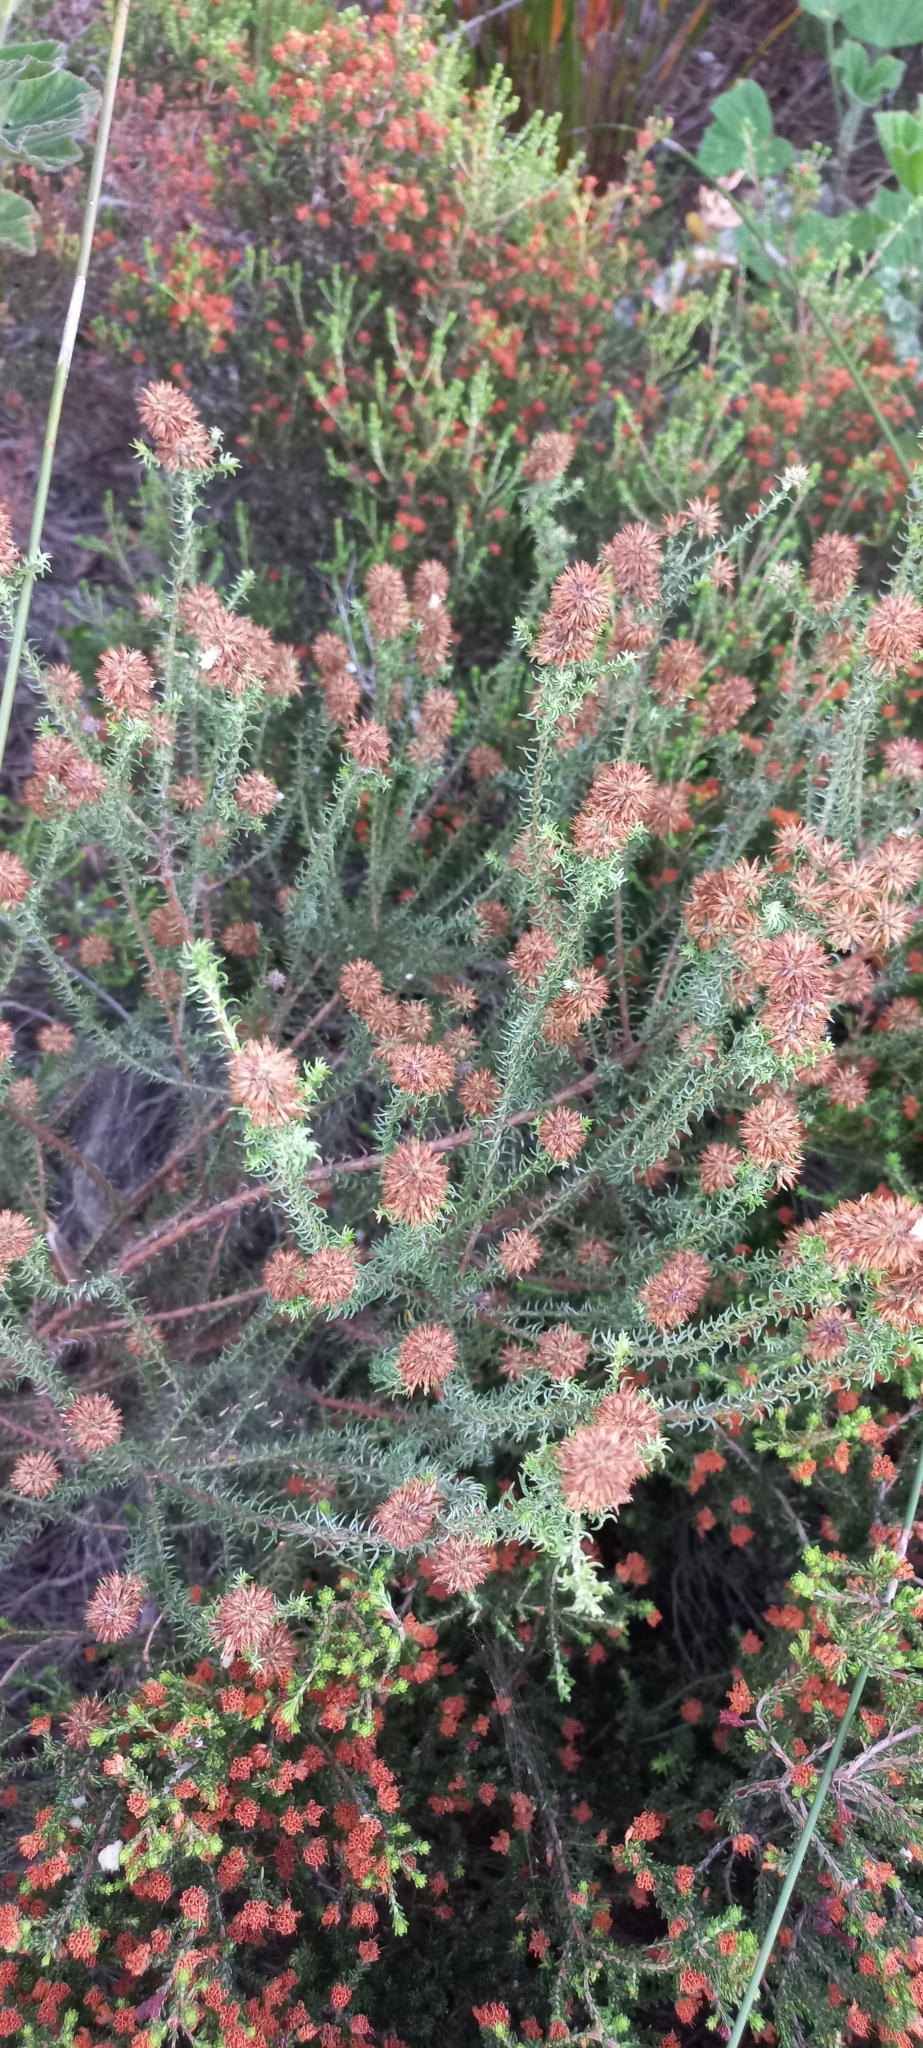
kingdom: Plantae
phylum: Tracheophyta
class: Magnoliopsida
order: Asterales
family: Asteraceae
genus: Seriphium
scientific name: Seriphium incanum
